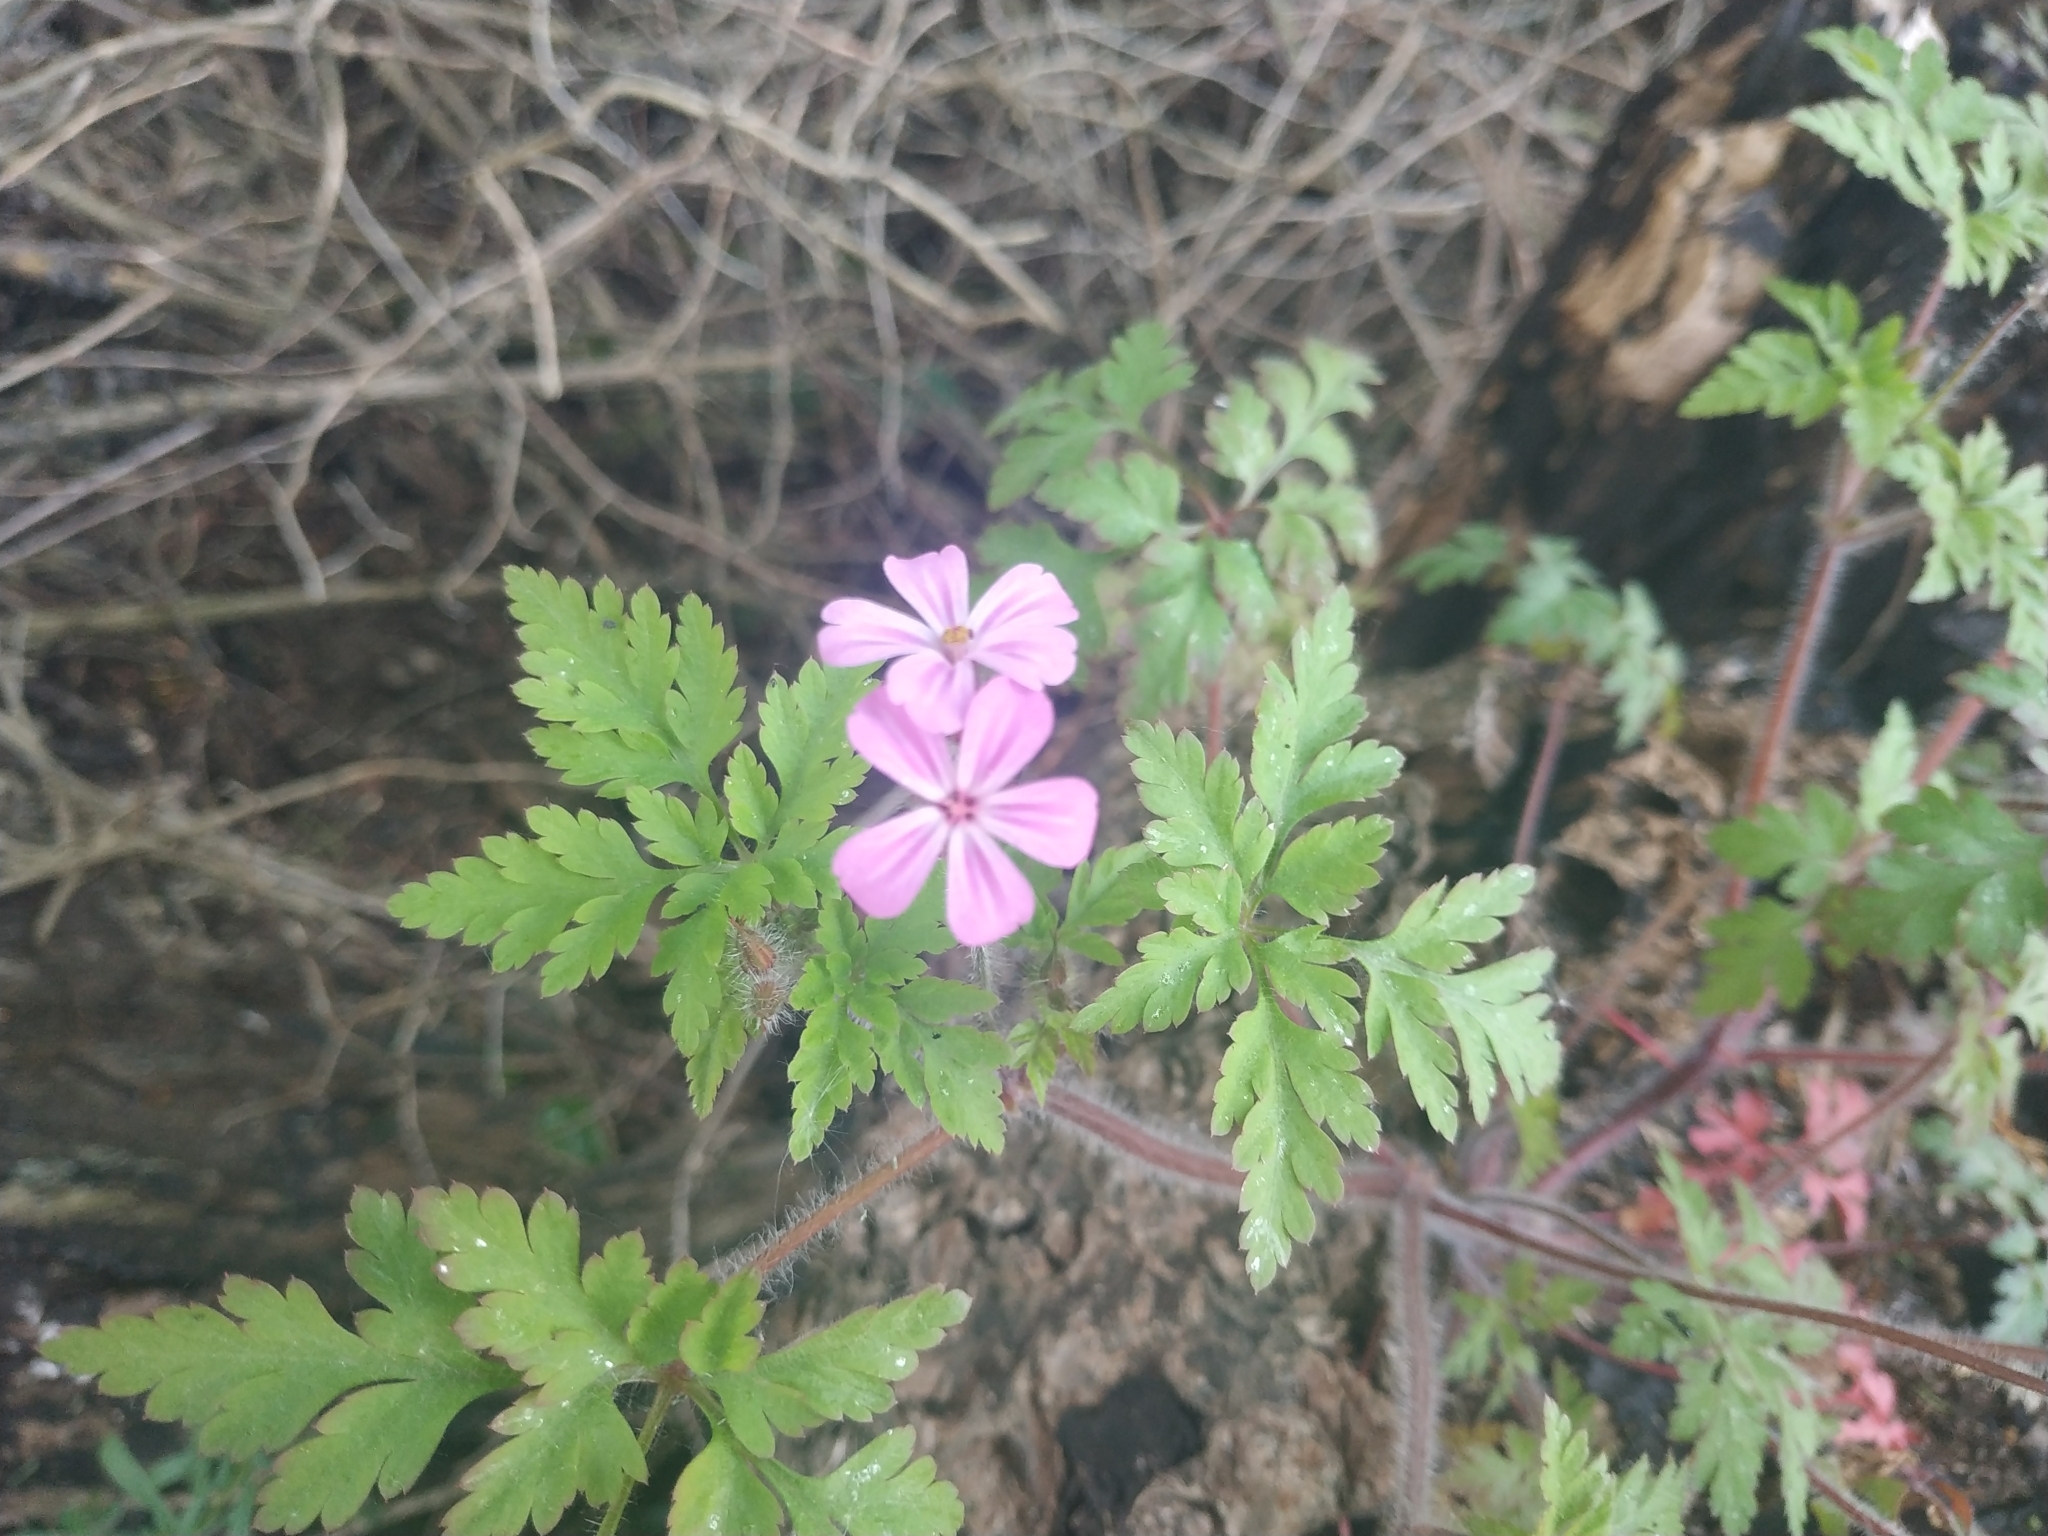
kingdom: Plantae
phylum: Tracheophyta
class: Magnoliopsida
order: Geraniales
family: Geraniaceae
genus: Geranium
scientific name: Geranium robertianum
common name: Herb-robert
